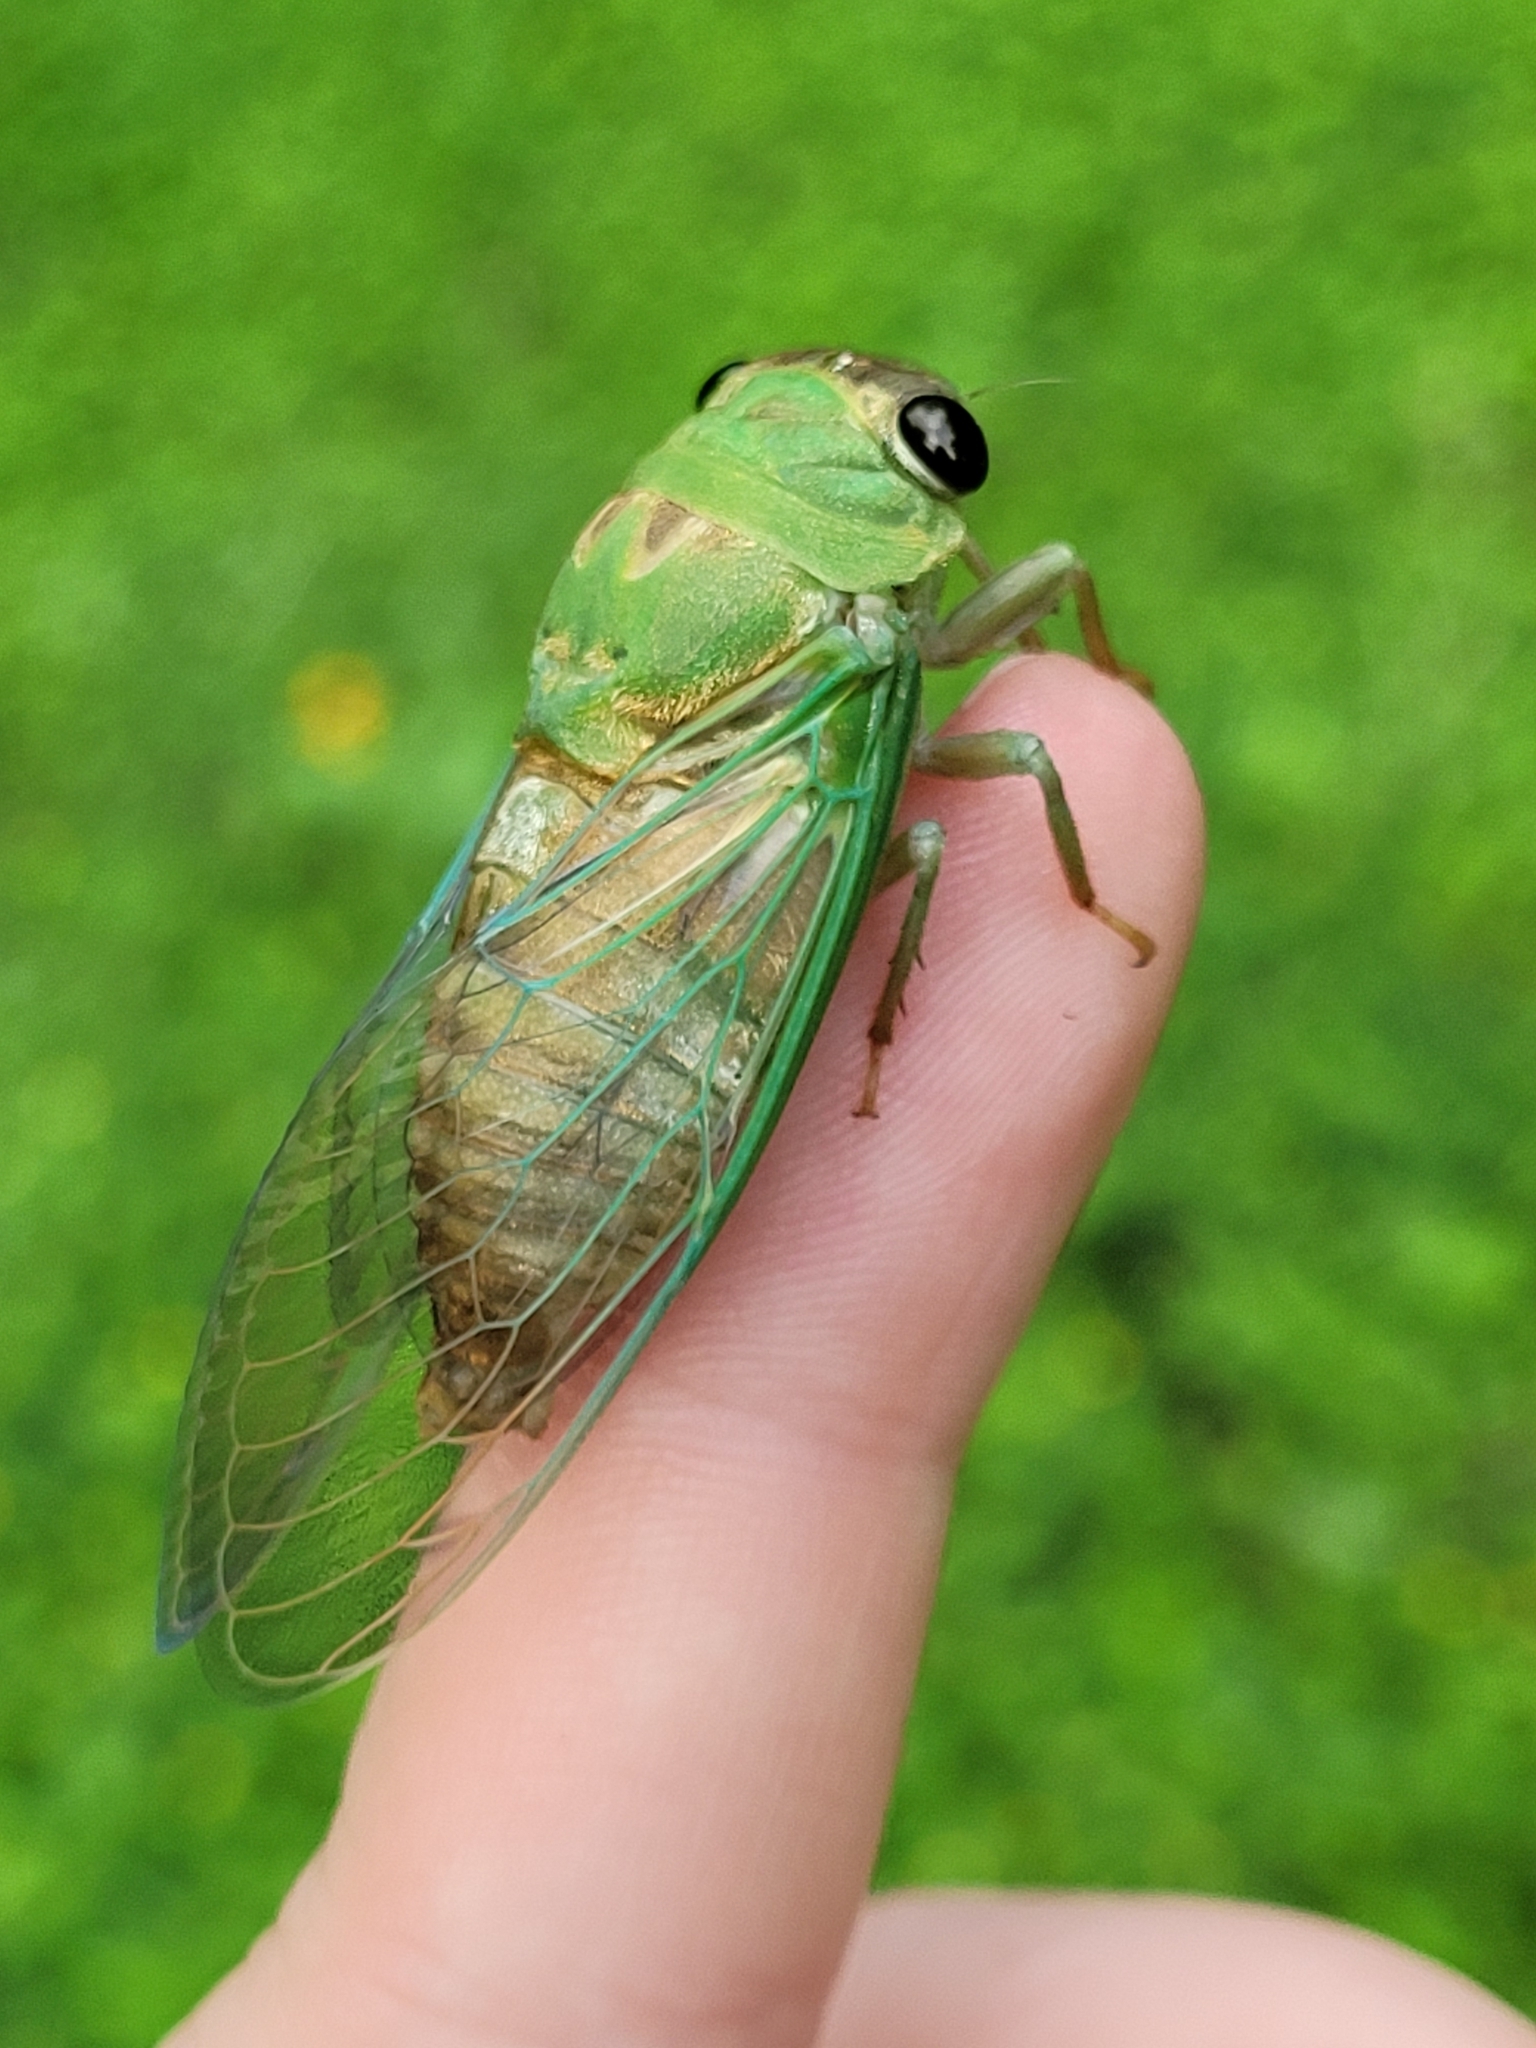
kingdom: Animalia
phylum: Arthropoda
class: Insecta
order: Hemiptera
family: Cicadidae
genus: Neotibicen
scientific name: Neotibicen superbus
